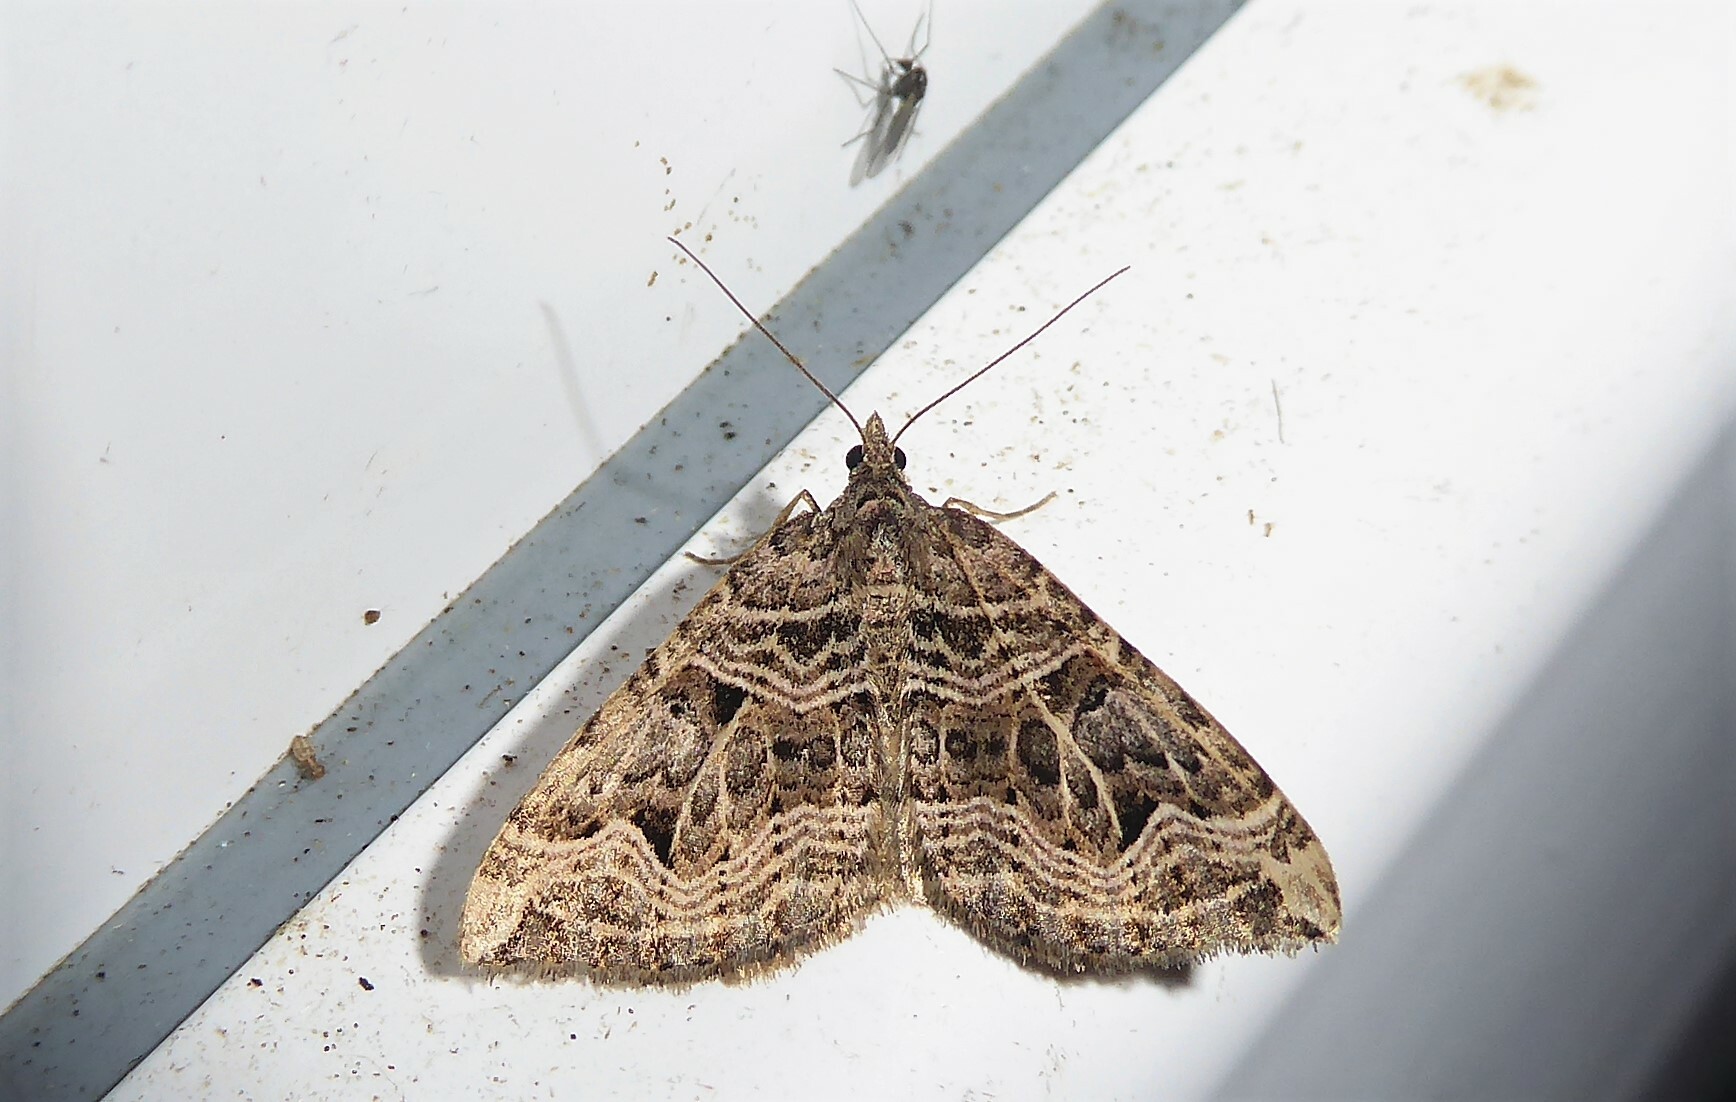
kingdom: Animalia
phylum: Arthropoda
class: Insecta
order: Lepidoptera
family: Geometridae
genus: Xanthorhoe
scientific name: Xanthorhoe semifissata
